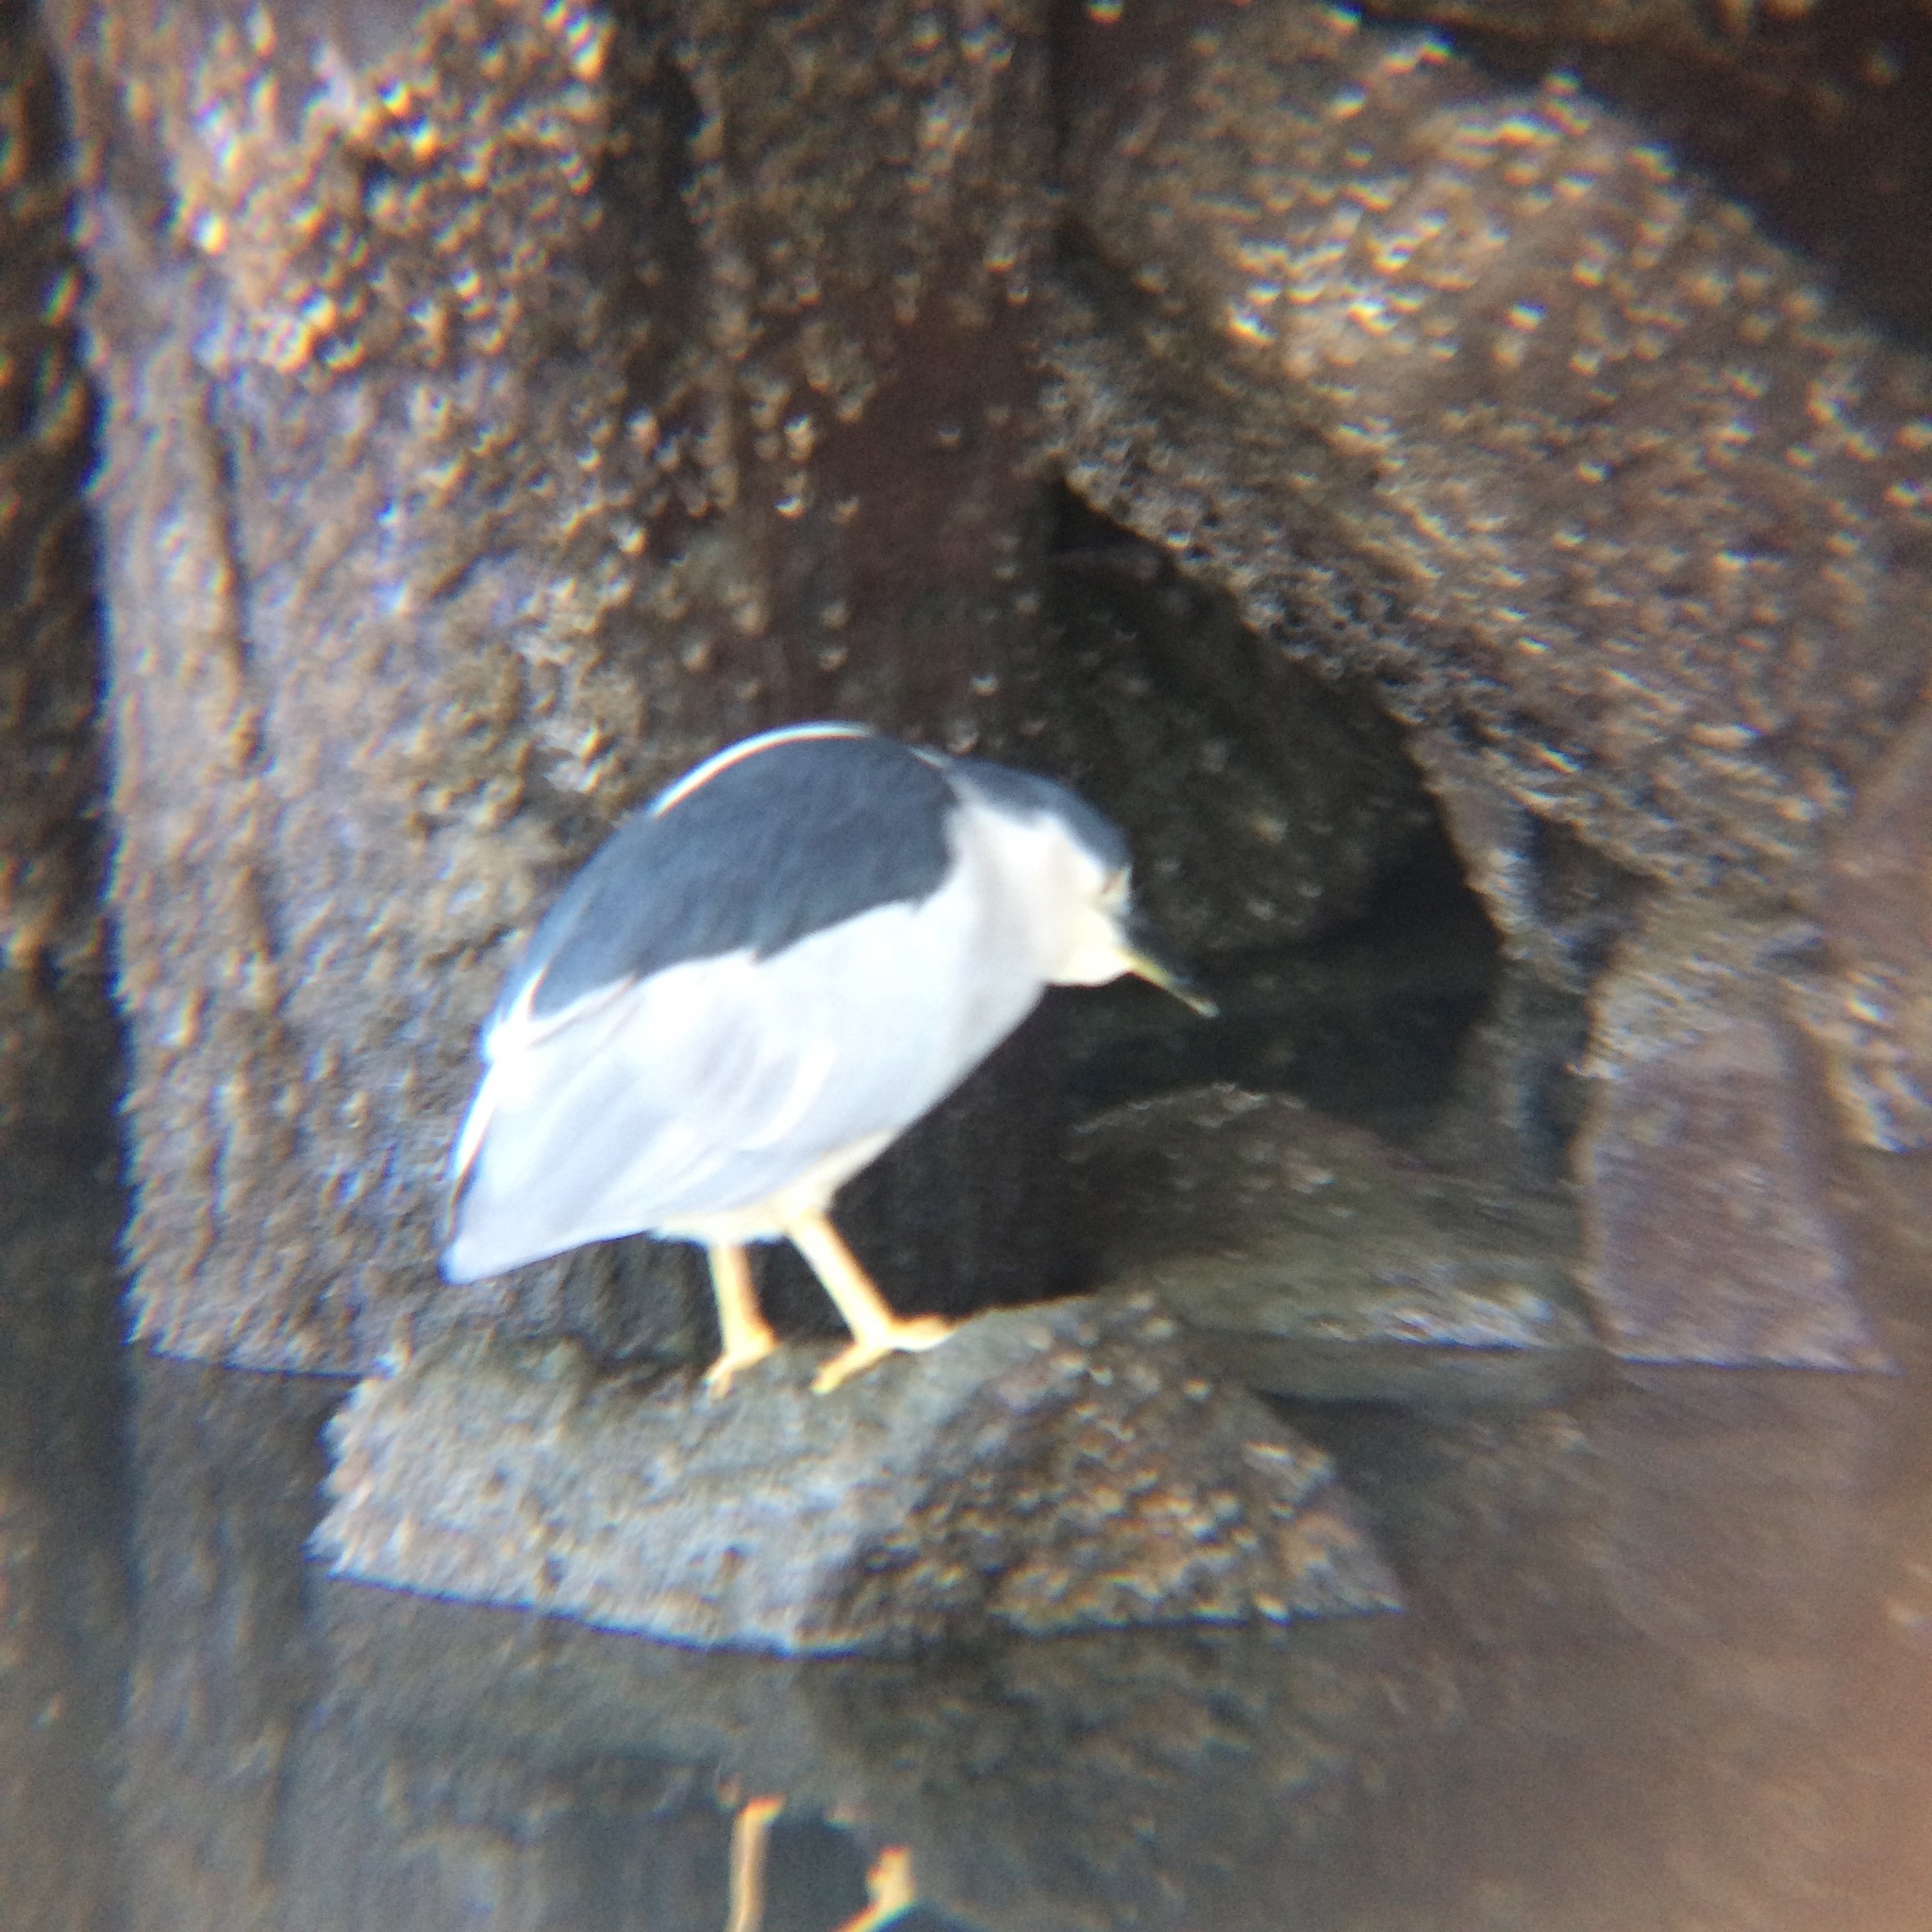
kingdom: Animalia
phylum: Chordata
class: Aves
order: Pelecaniformes
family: Ardeidae
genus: Nycticorax
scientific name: Nycticorax nycticorax
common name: Black-crowned night heron
